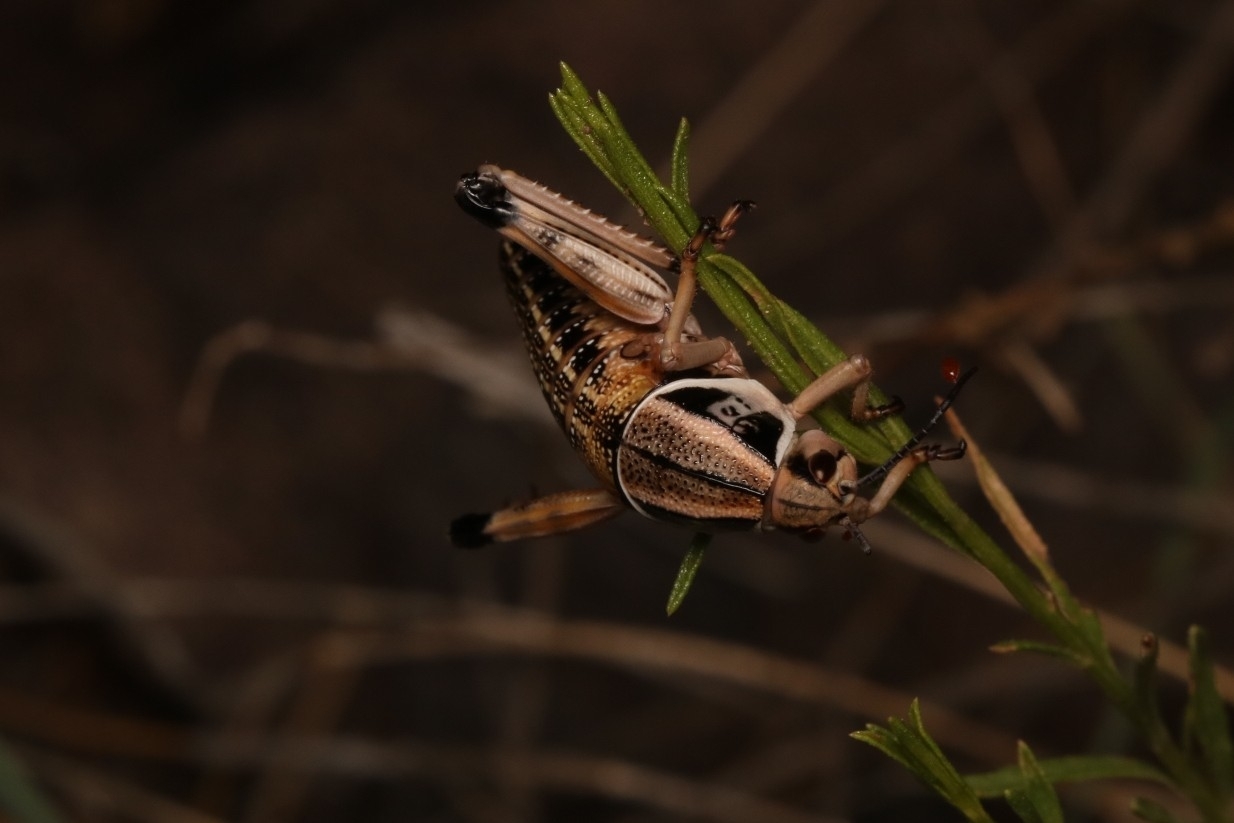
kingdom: Animalia
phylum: Arthropoda
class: Insecta
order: Orthoptera
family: Romaleidae
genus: Brachystola
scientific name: Brachystola magna
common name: Plains lubber grasshopper
